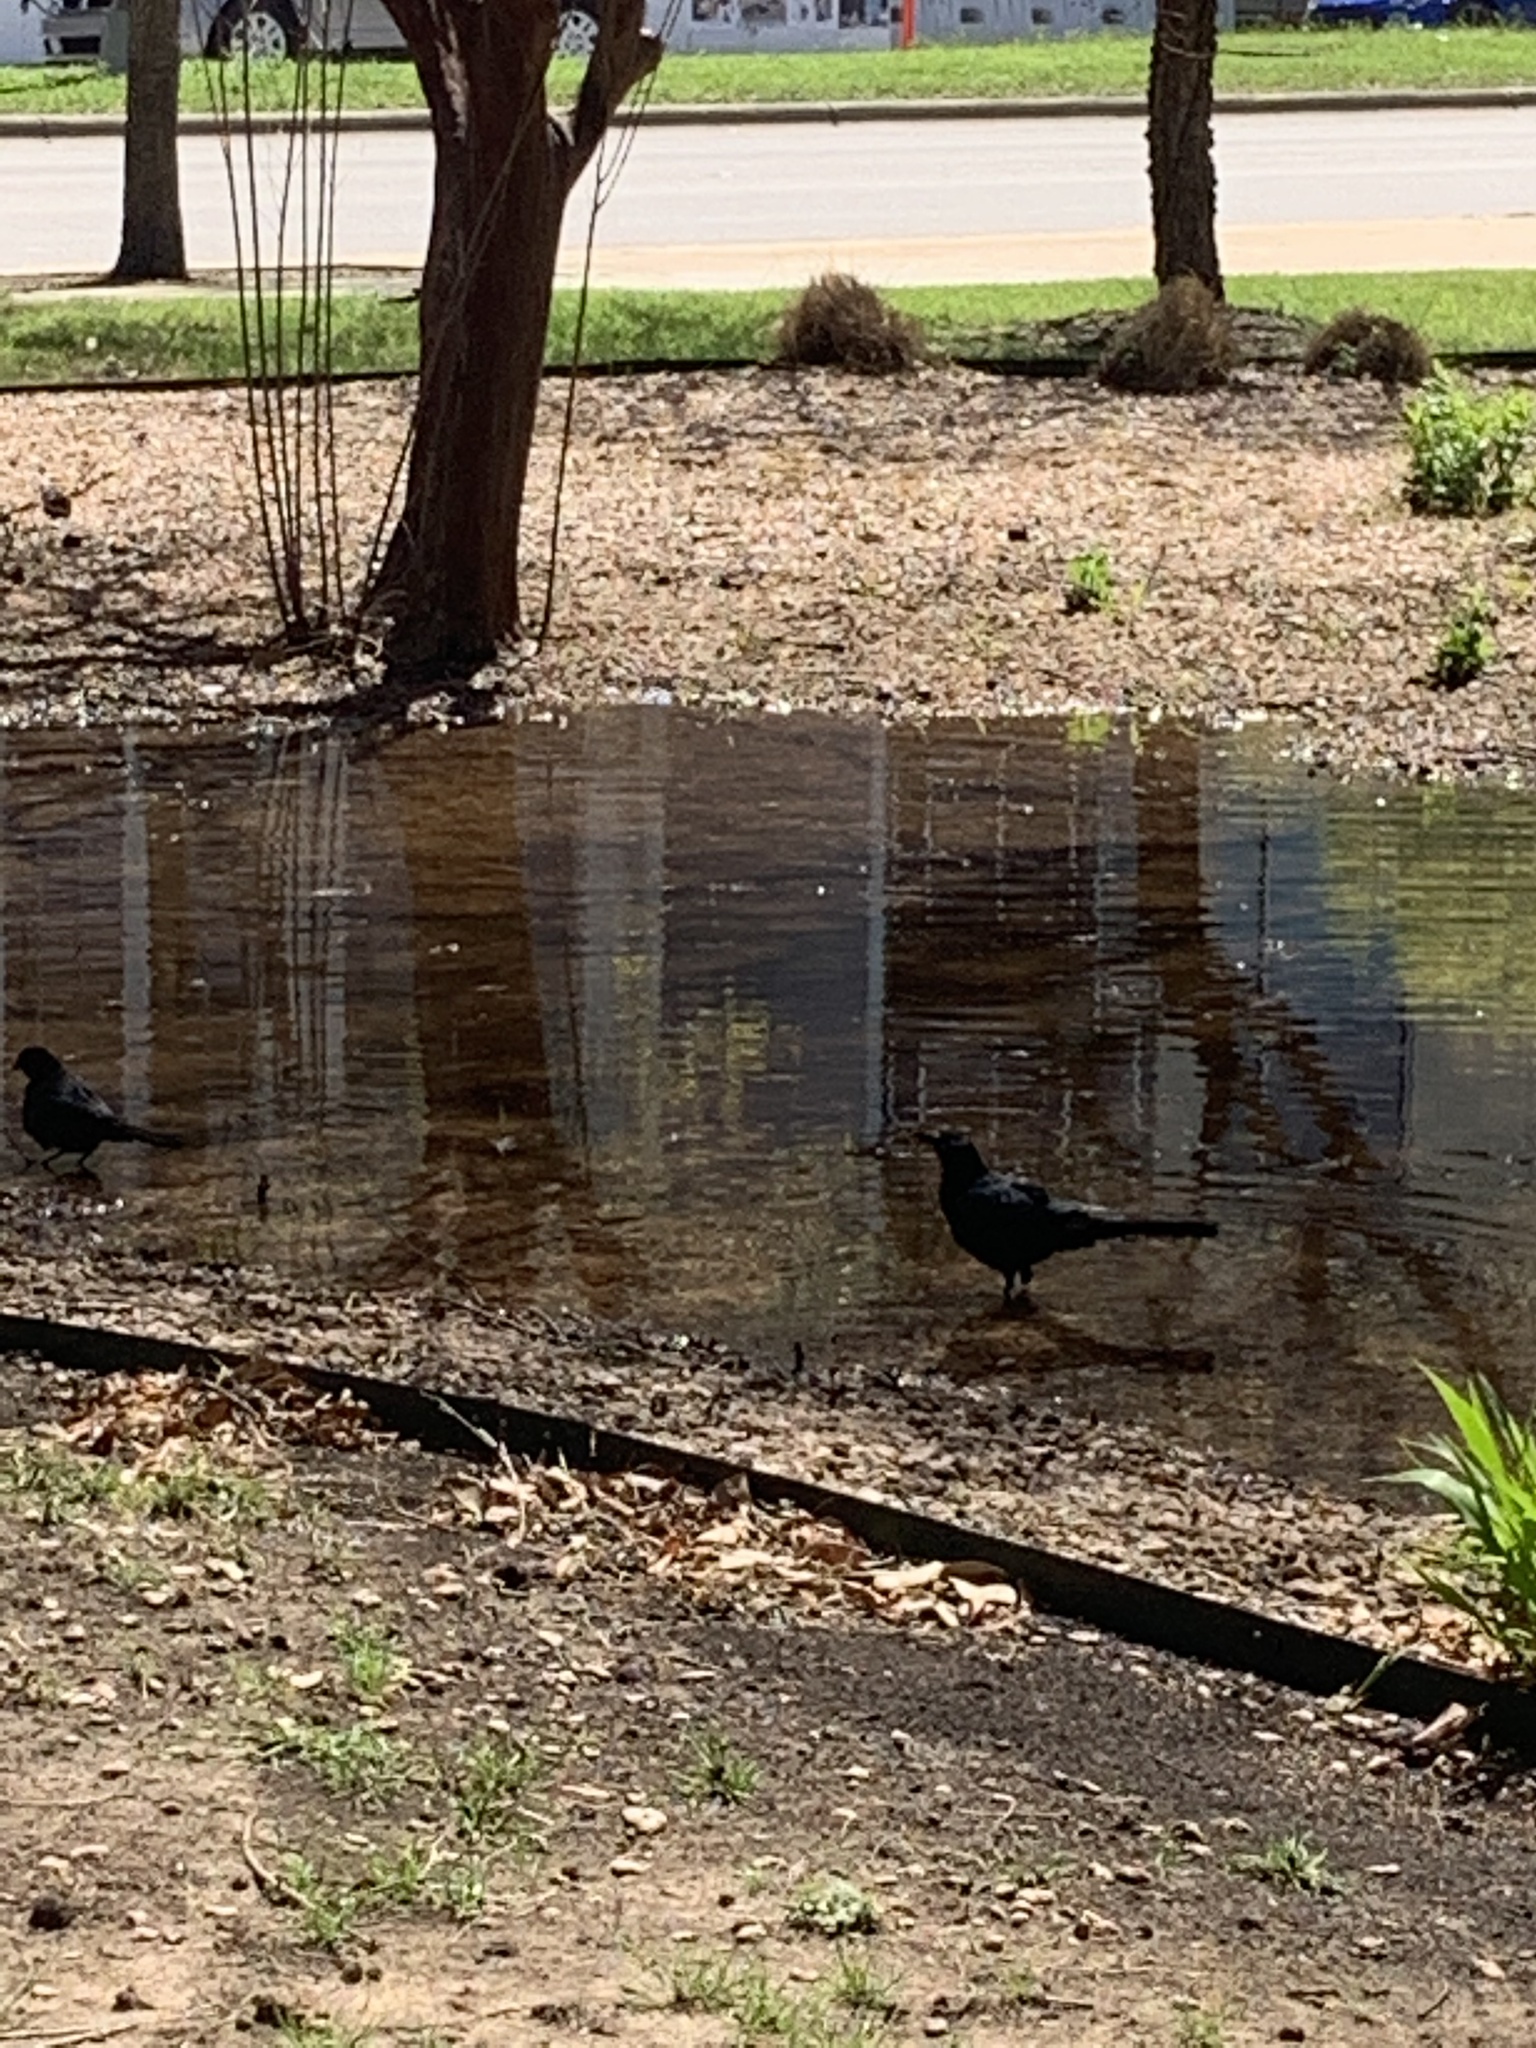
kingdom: Animalia
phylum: Chordata
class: Aves
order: Passeriformes
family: Icteridae
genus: Quiscalus
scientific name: Quiscalus mexicanus
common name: Great-tailed grackle
